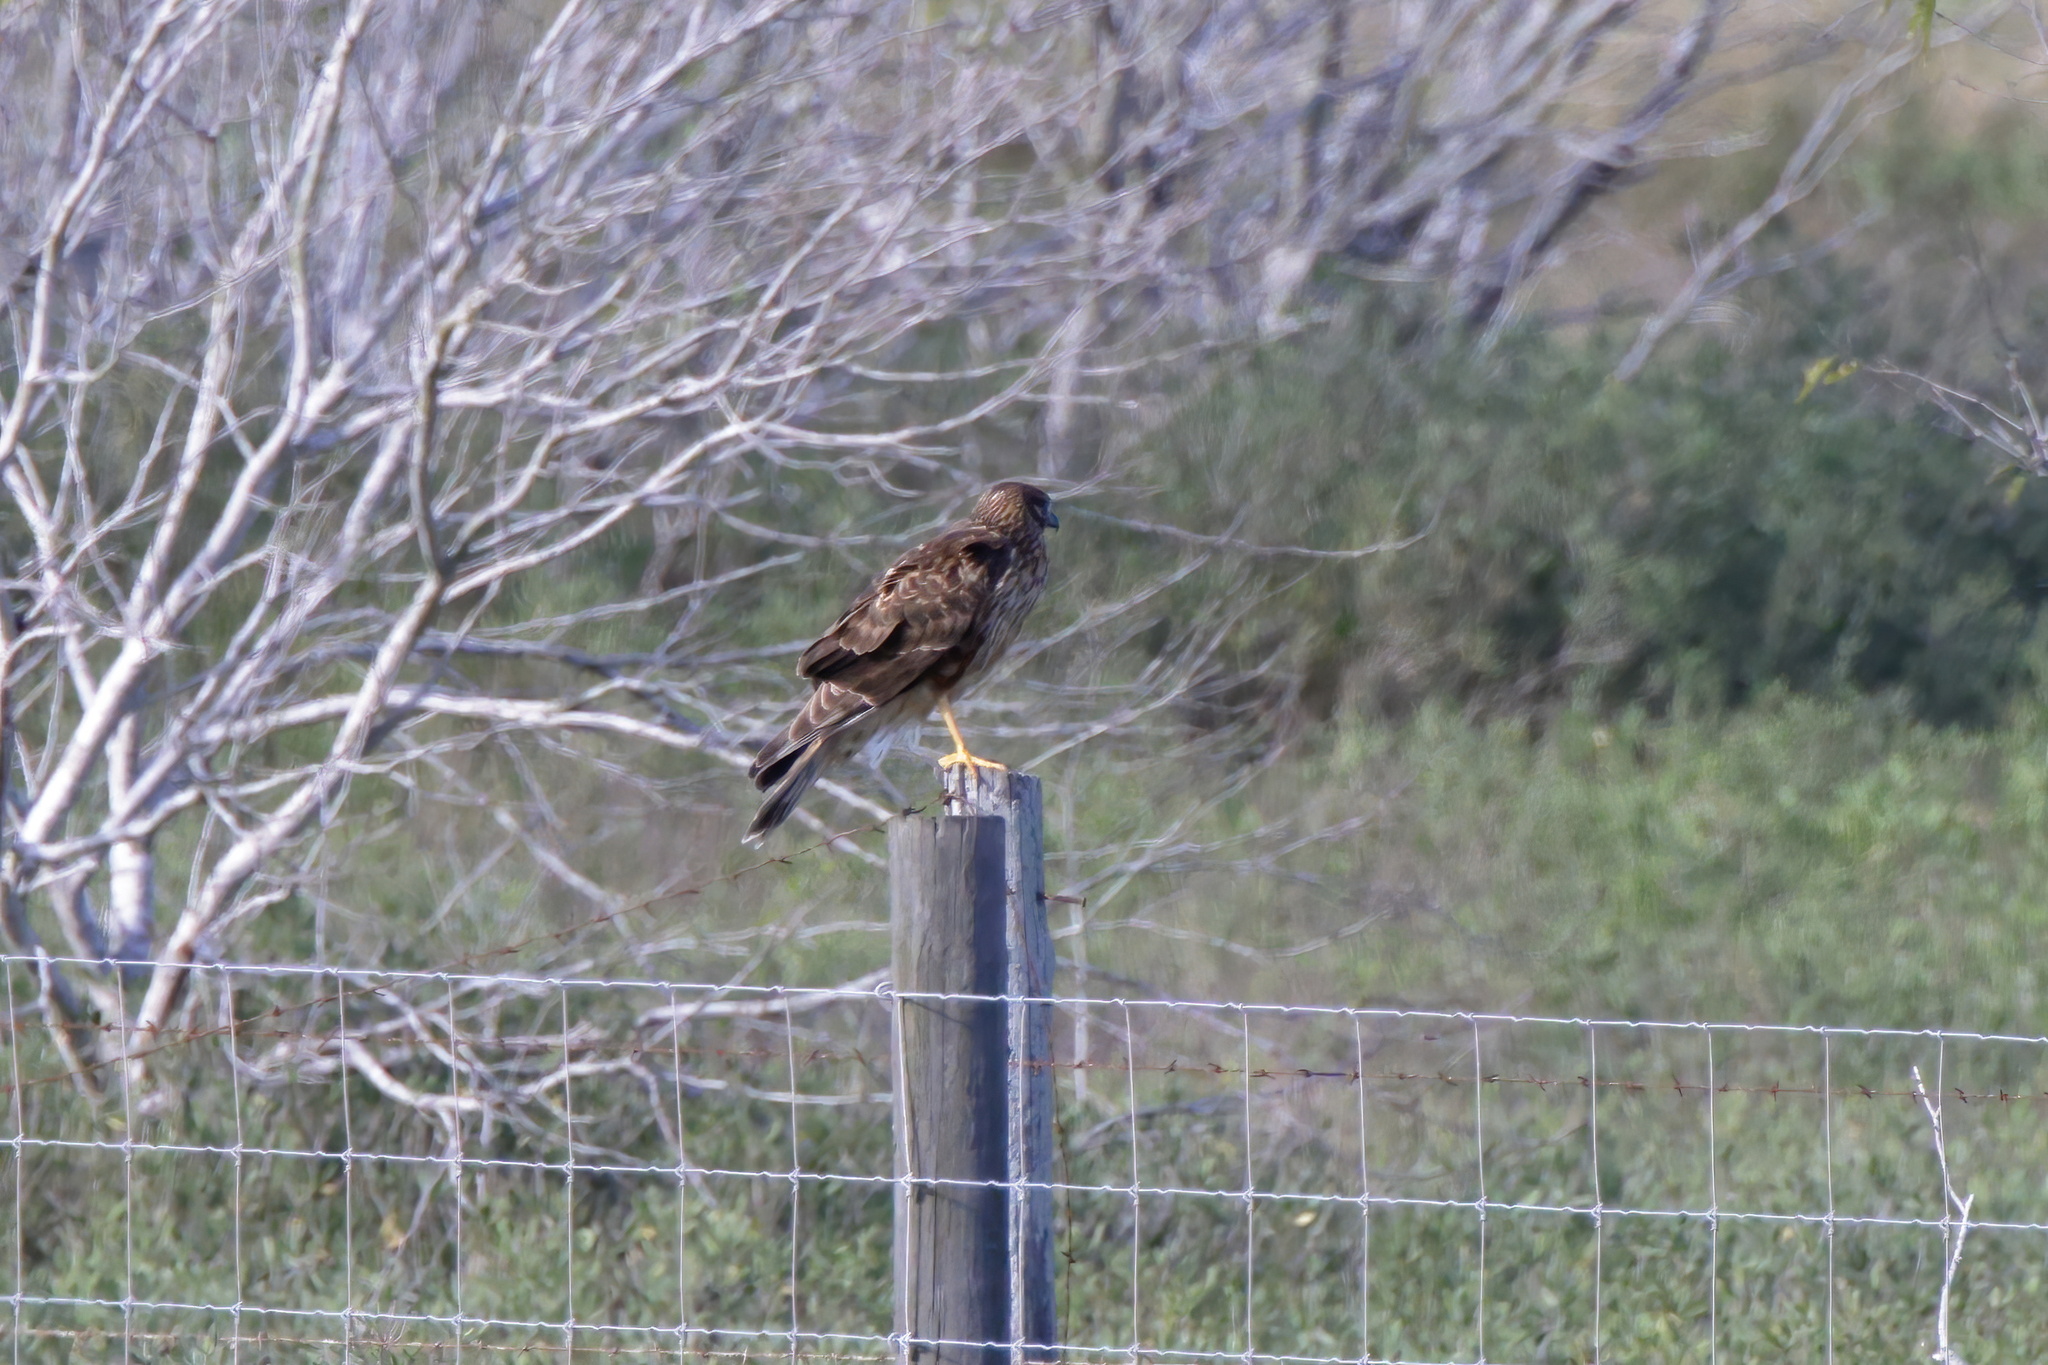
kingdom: Animalia
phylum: Chordata
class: Aves
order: Accipitriformes
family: Accipitridae
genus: Circus
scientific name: Circus cyaneus
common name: Hen harrier
